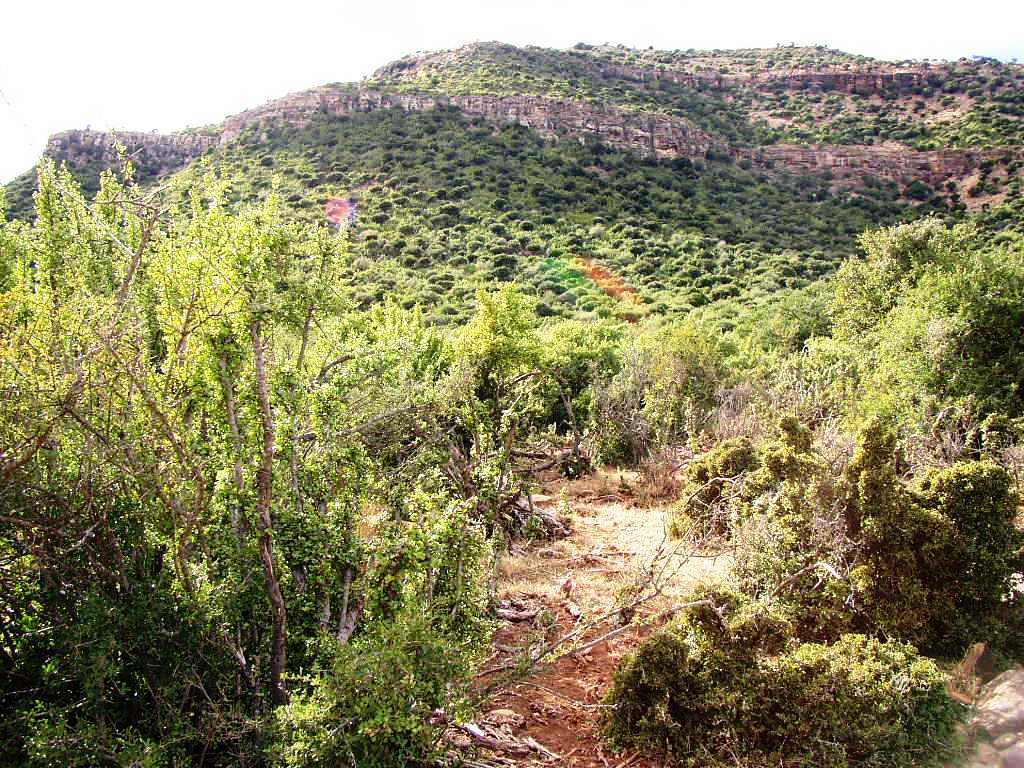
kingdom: Plantae
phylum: Tracheophyta
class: Magnoliopsida
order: Caryophyllales
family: Didiereaceae
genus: Portulacaria
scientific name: Portulacaria afra
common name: Elephant-bush
